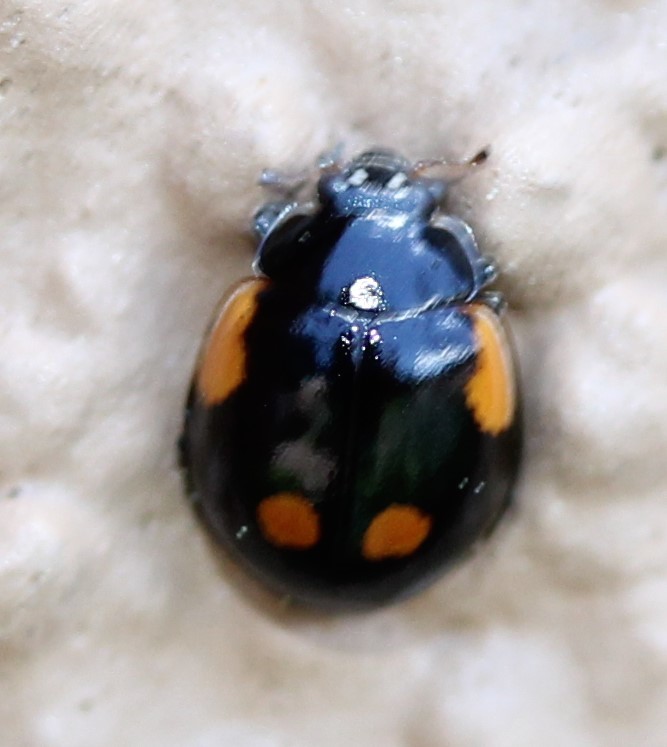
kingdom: Animalia
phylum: Arthropoda
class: Insecta
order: Coleoptera
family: Coccinellidae
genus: Adalia
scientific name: Adalia bipunctata
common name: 2-spot ladybird
